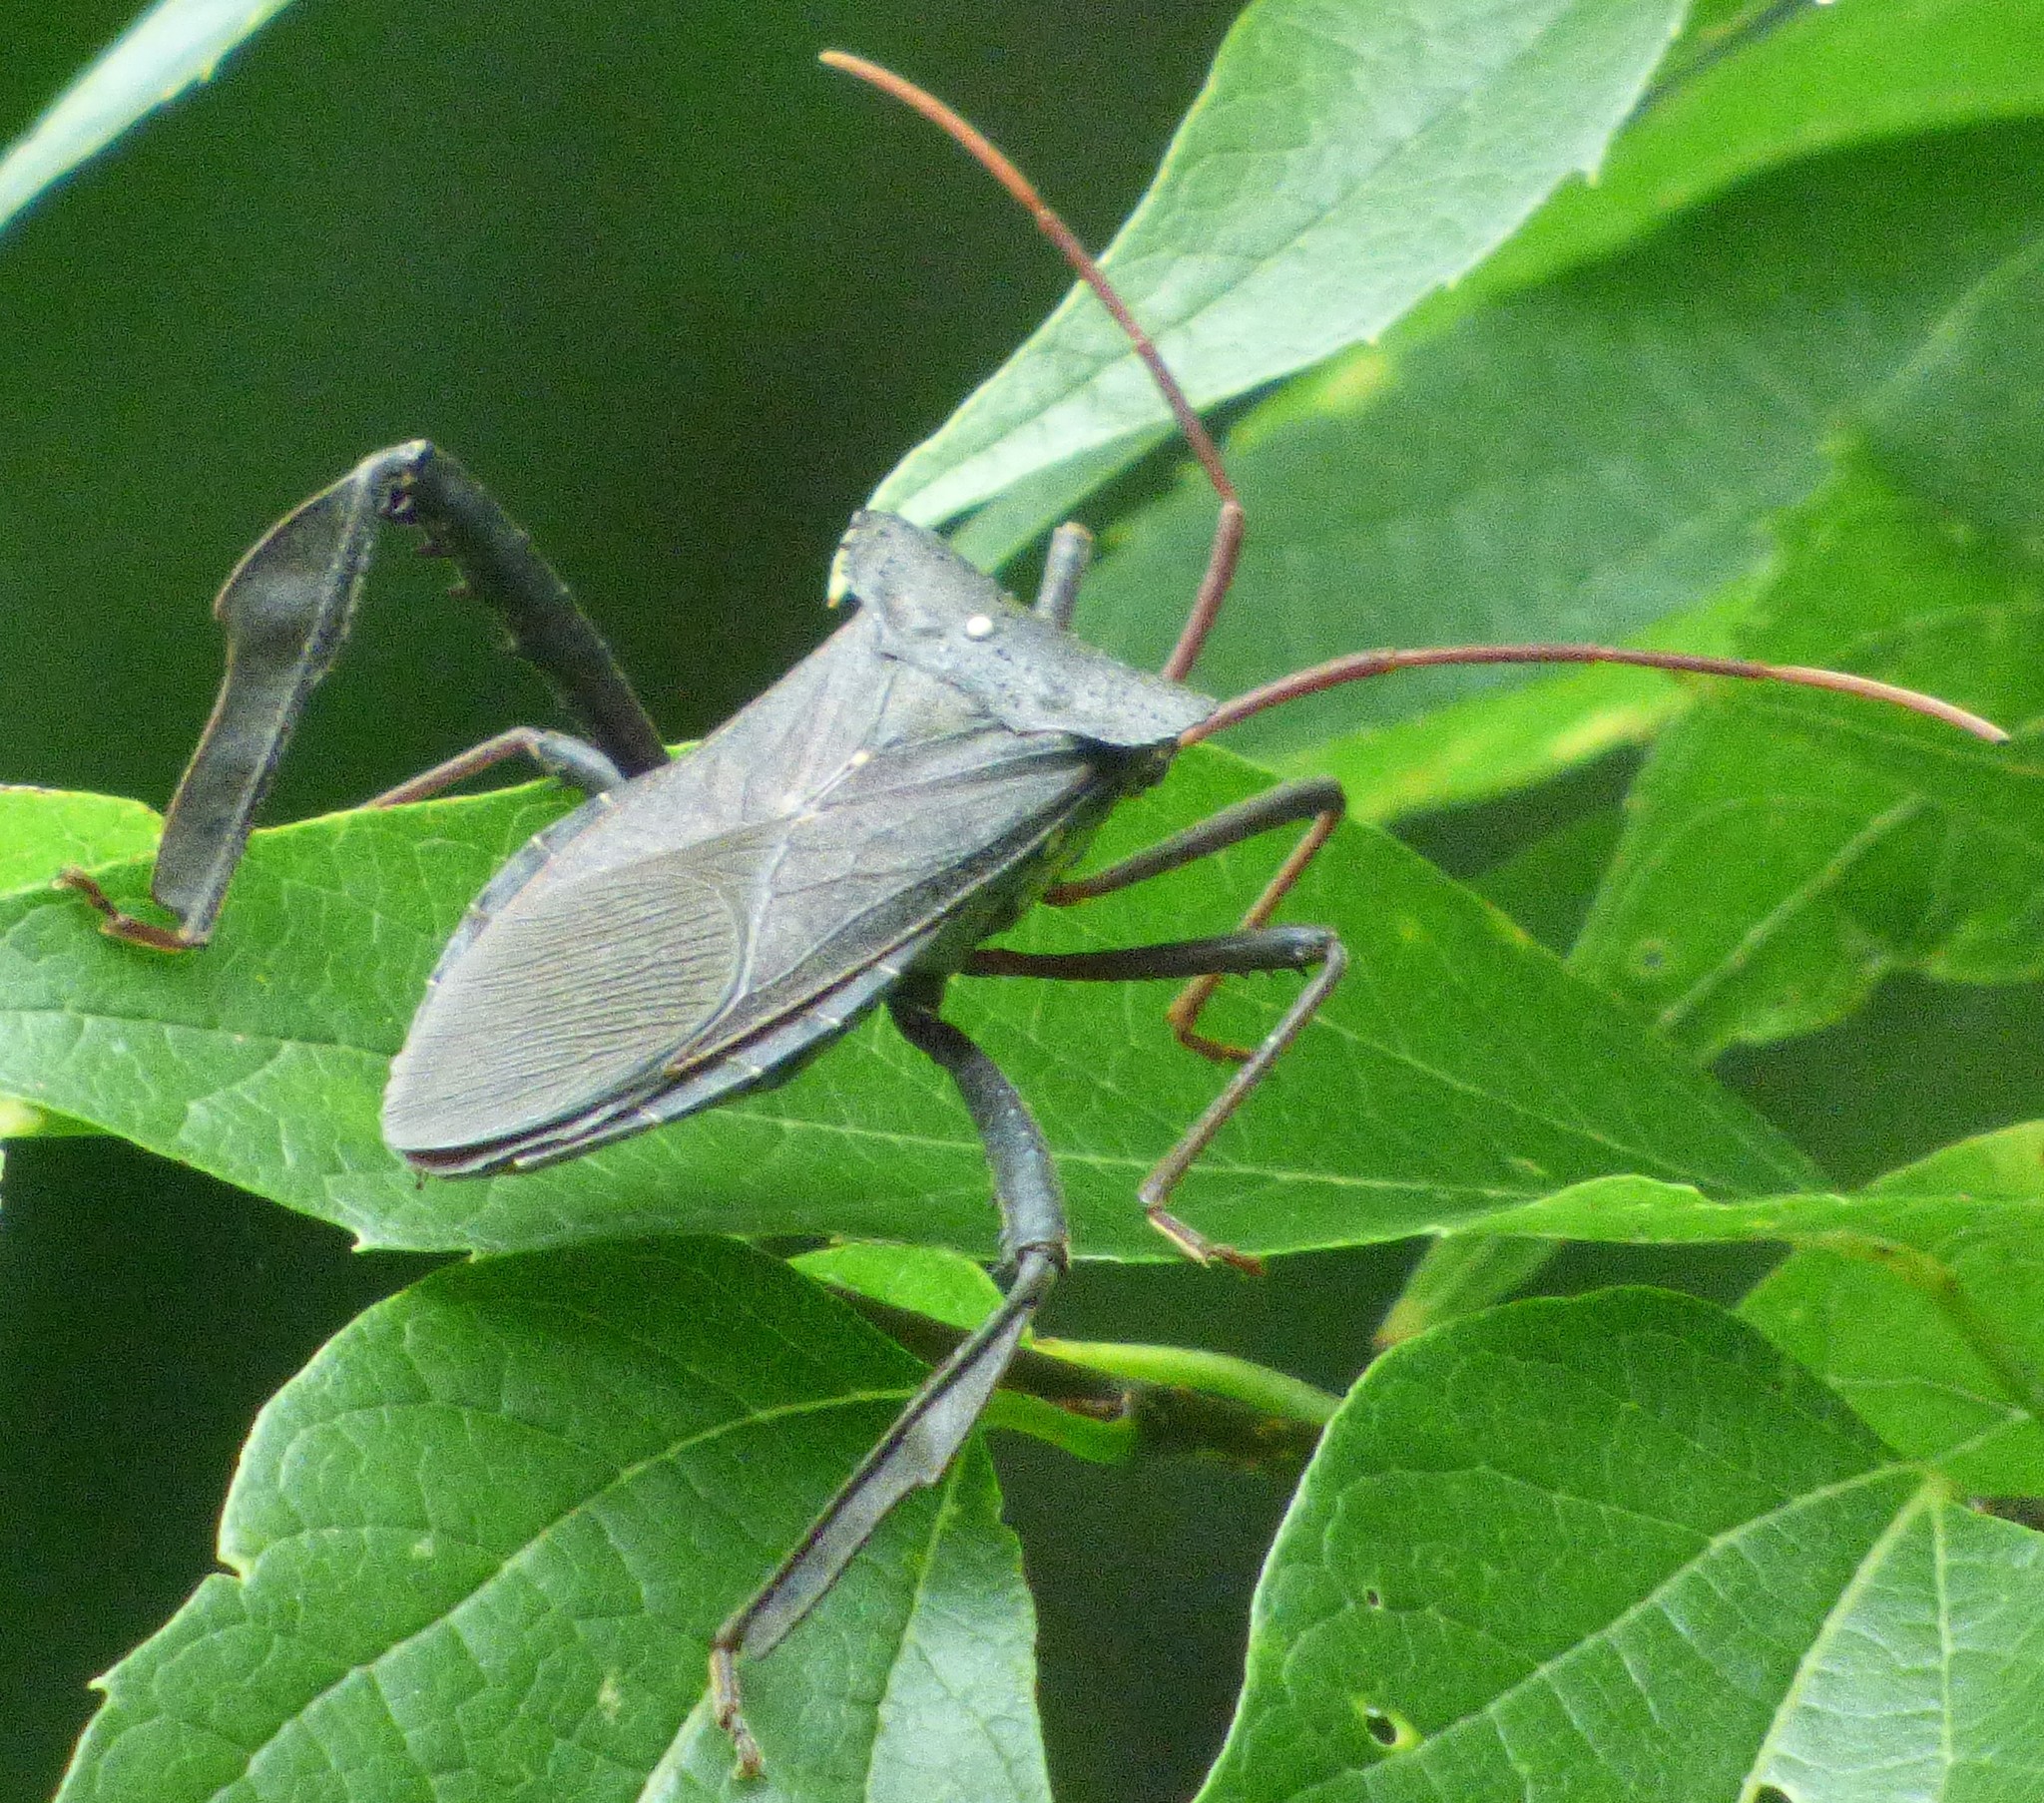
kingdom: Animalia
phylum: Arthropoda
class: Insecta
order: Hemiptera
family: Coreidae
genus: Acanthocephala
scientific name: Acanthocephala declivis
